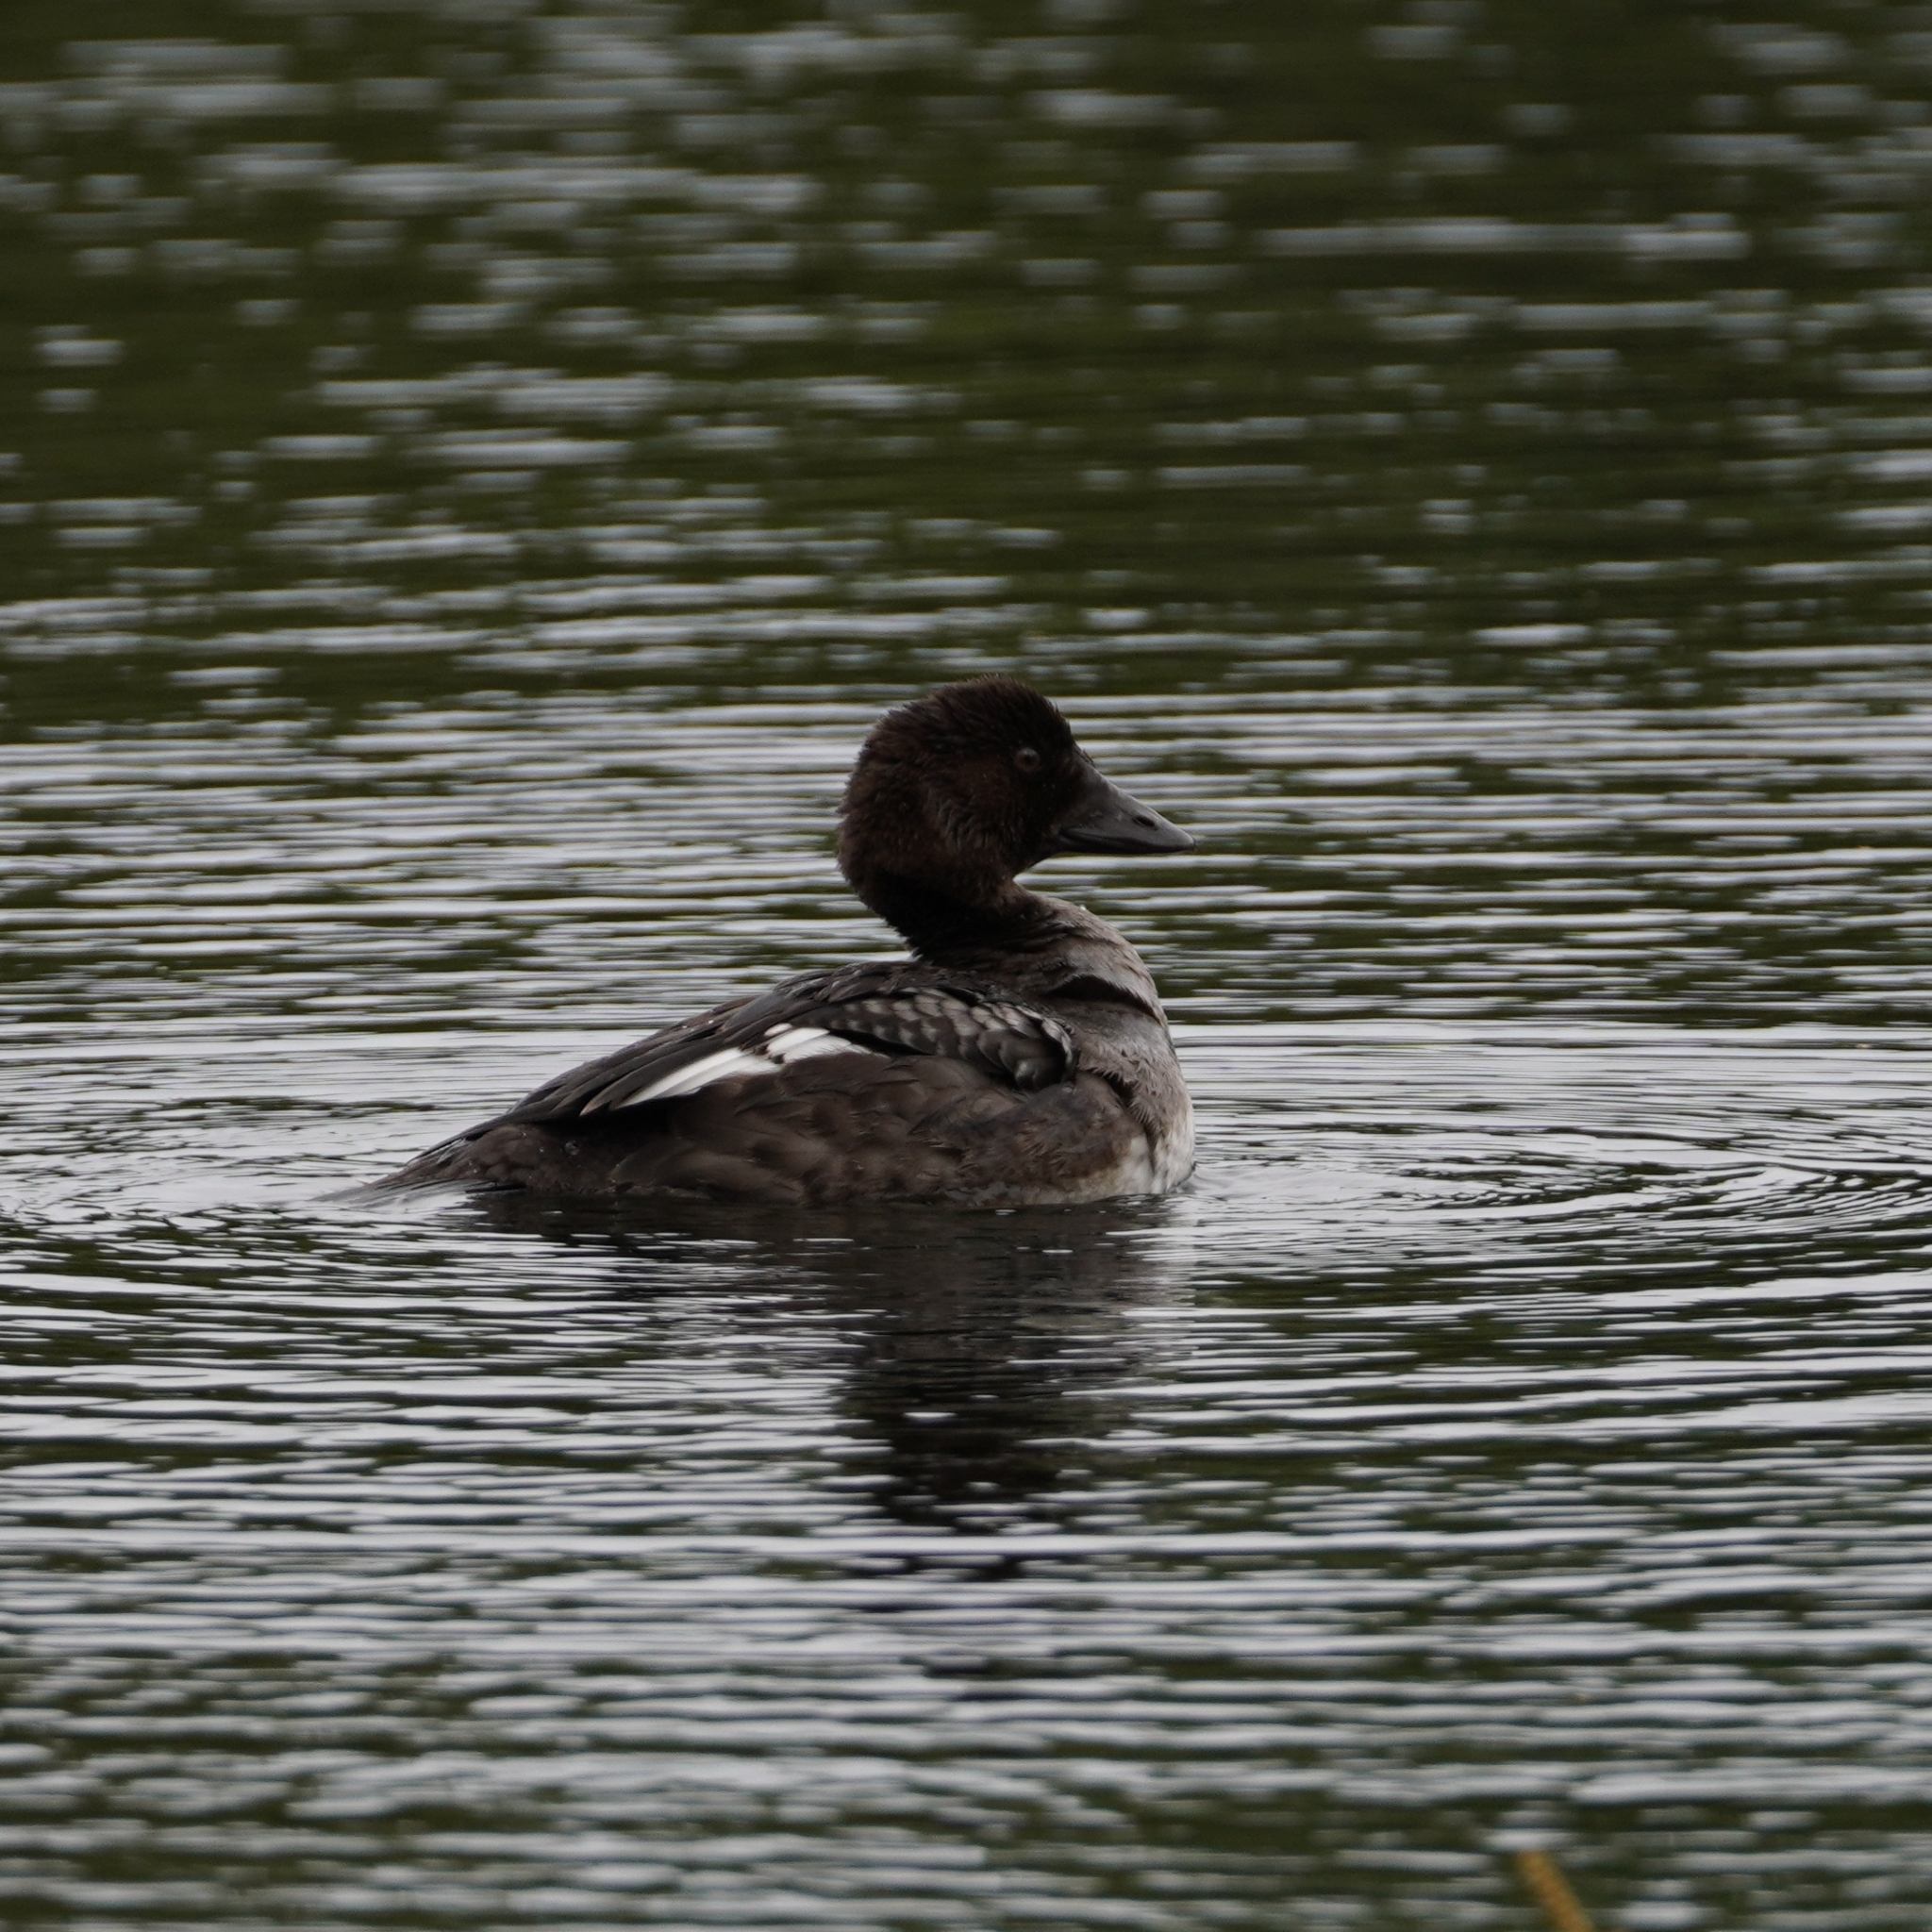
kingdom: Animalia
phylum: Chordata
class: Aves
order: Anseriformes
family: Anatidae
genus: Bucephala
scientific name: Bucephala clangula
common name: Common goldeneye
